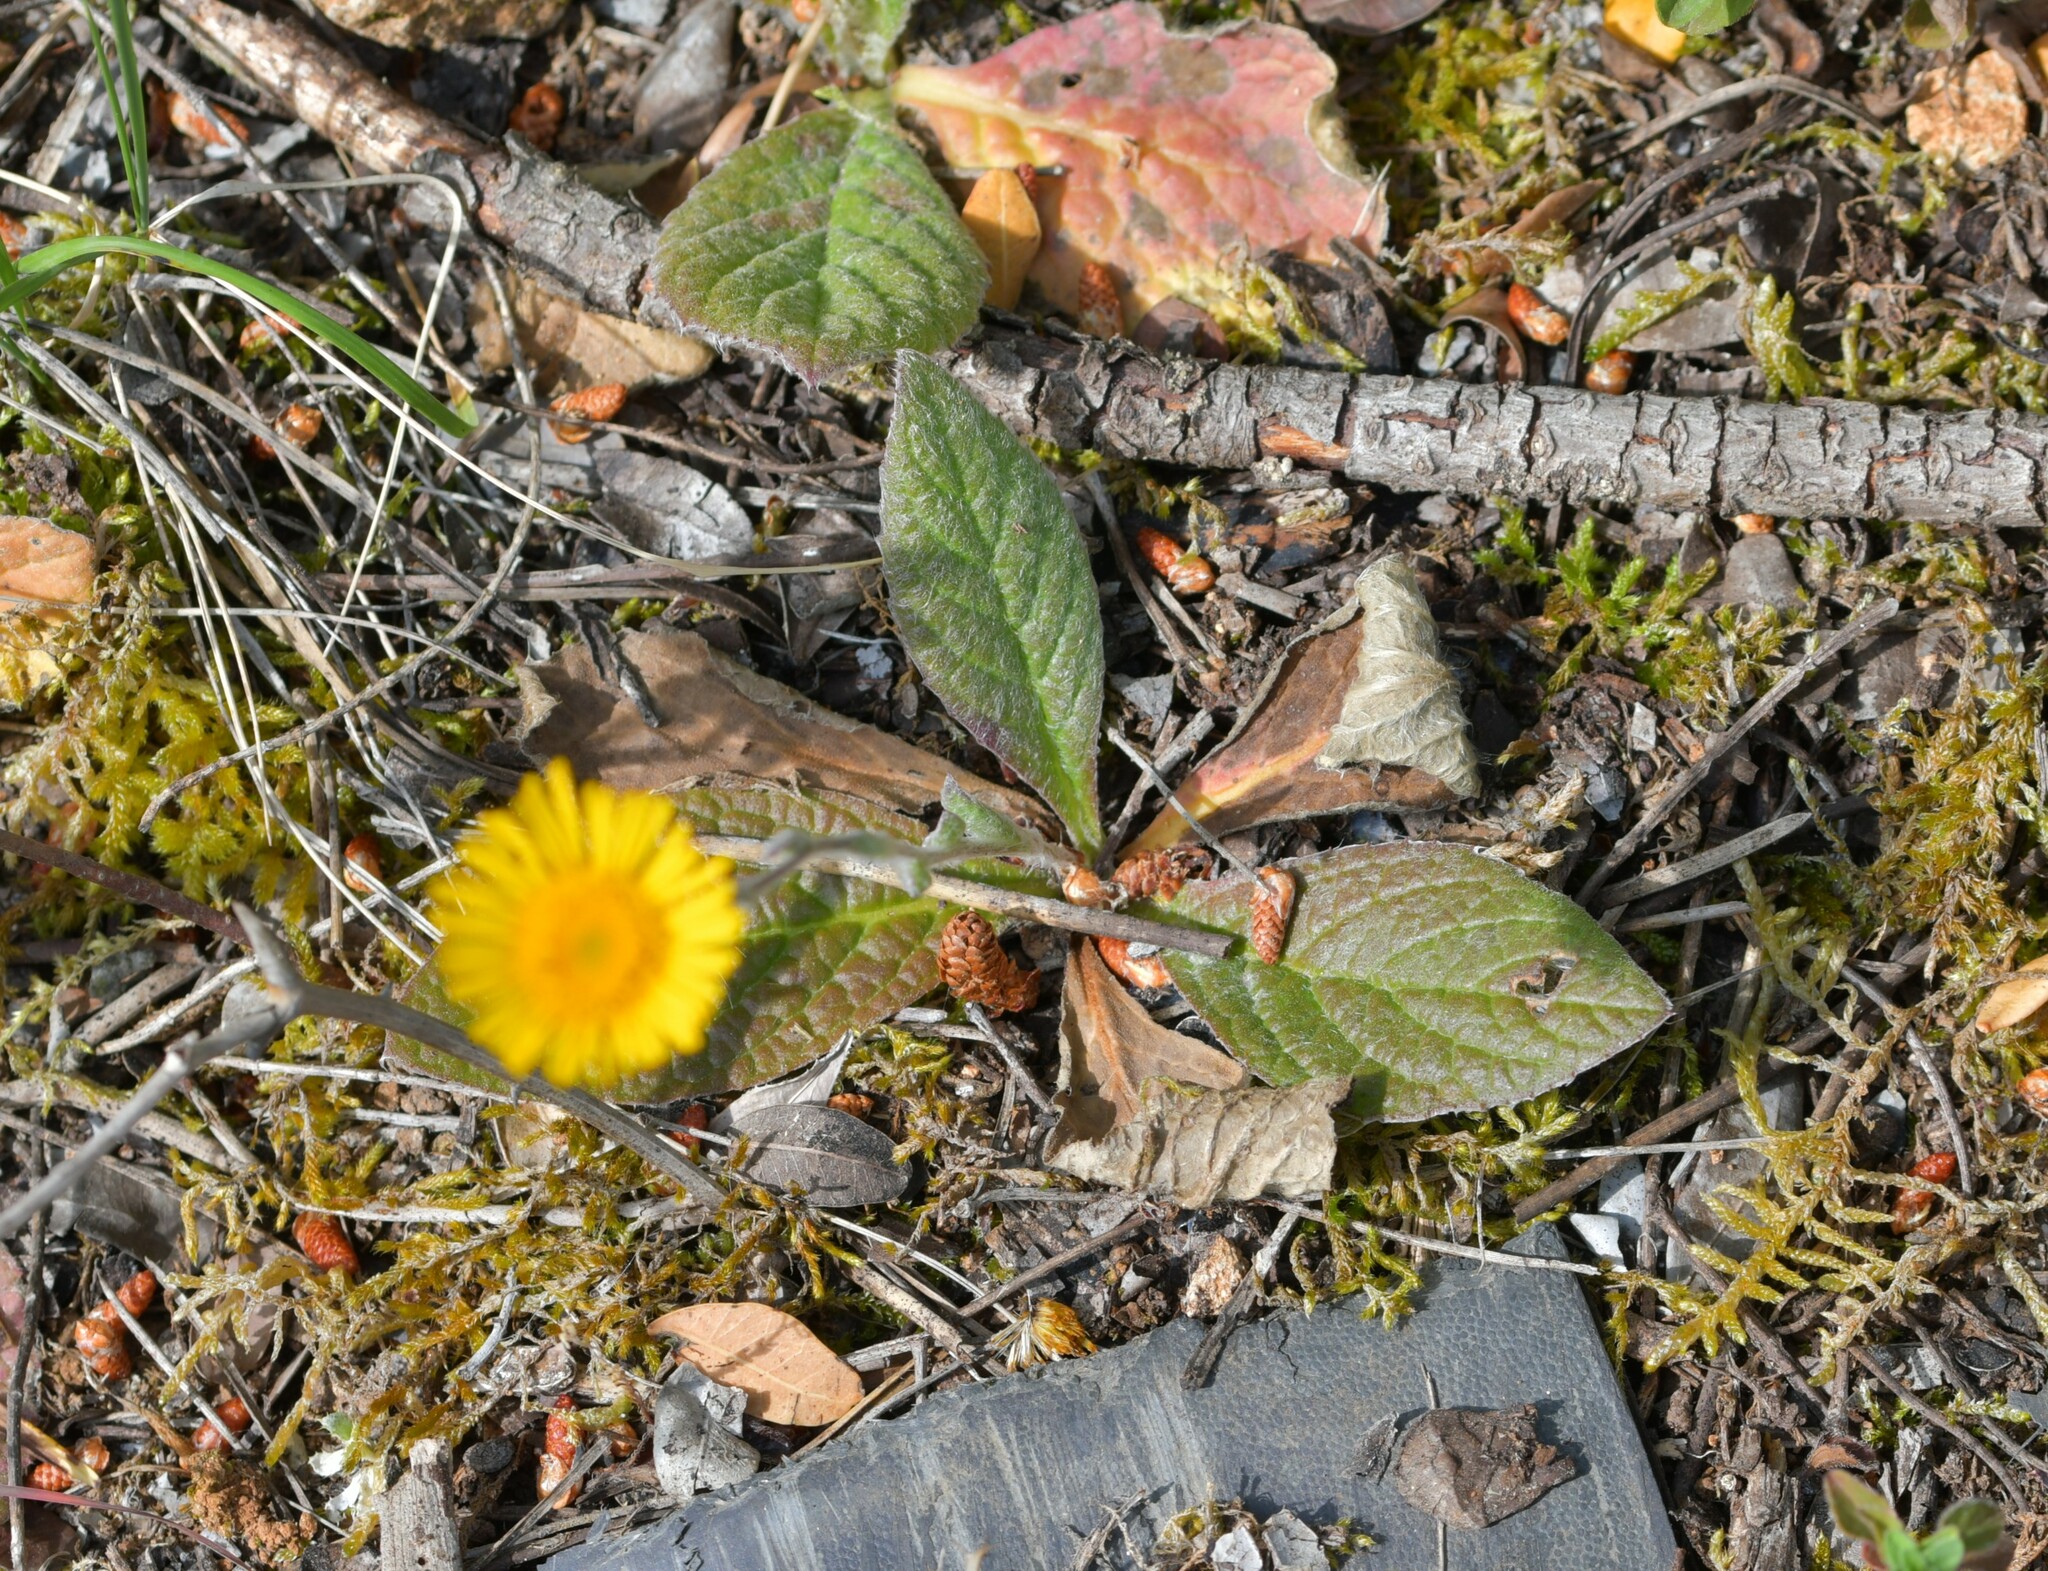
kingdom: Plantae
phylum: Tracheophyta
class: Magnoliopsida
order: Asterales
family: Asteraceae
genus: Pulicaria
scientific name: Pulicaria odora
